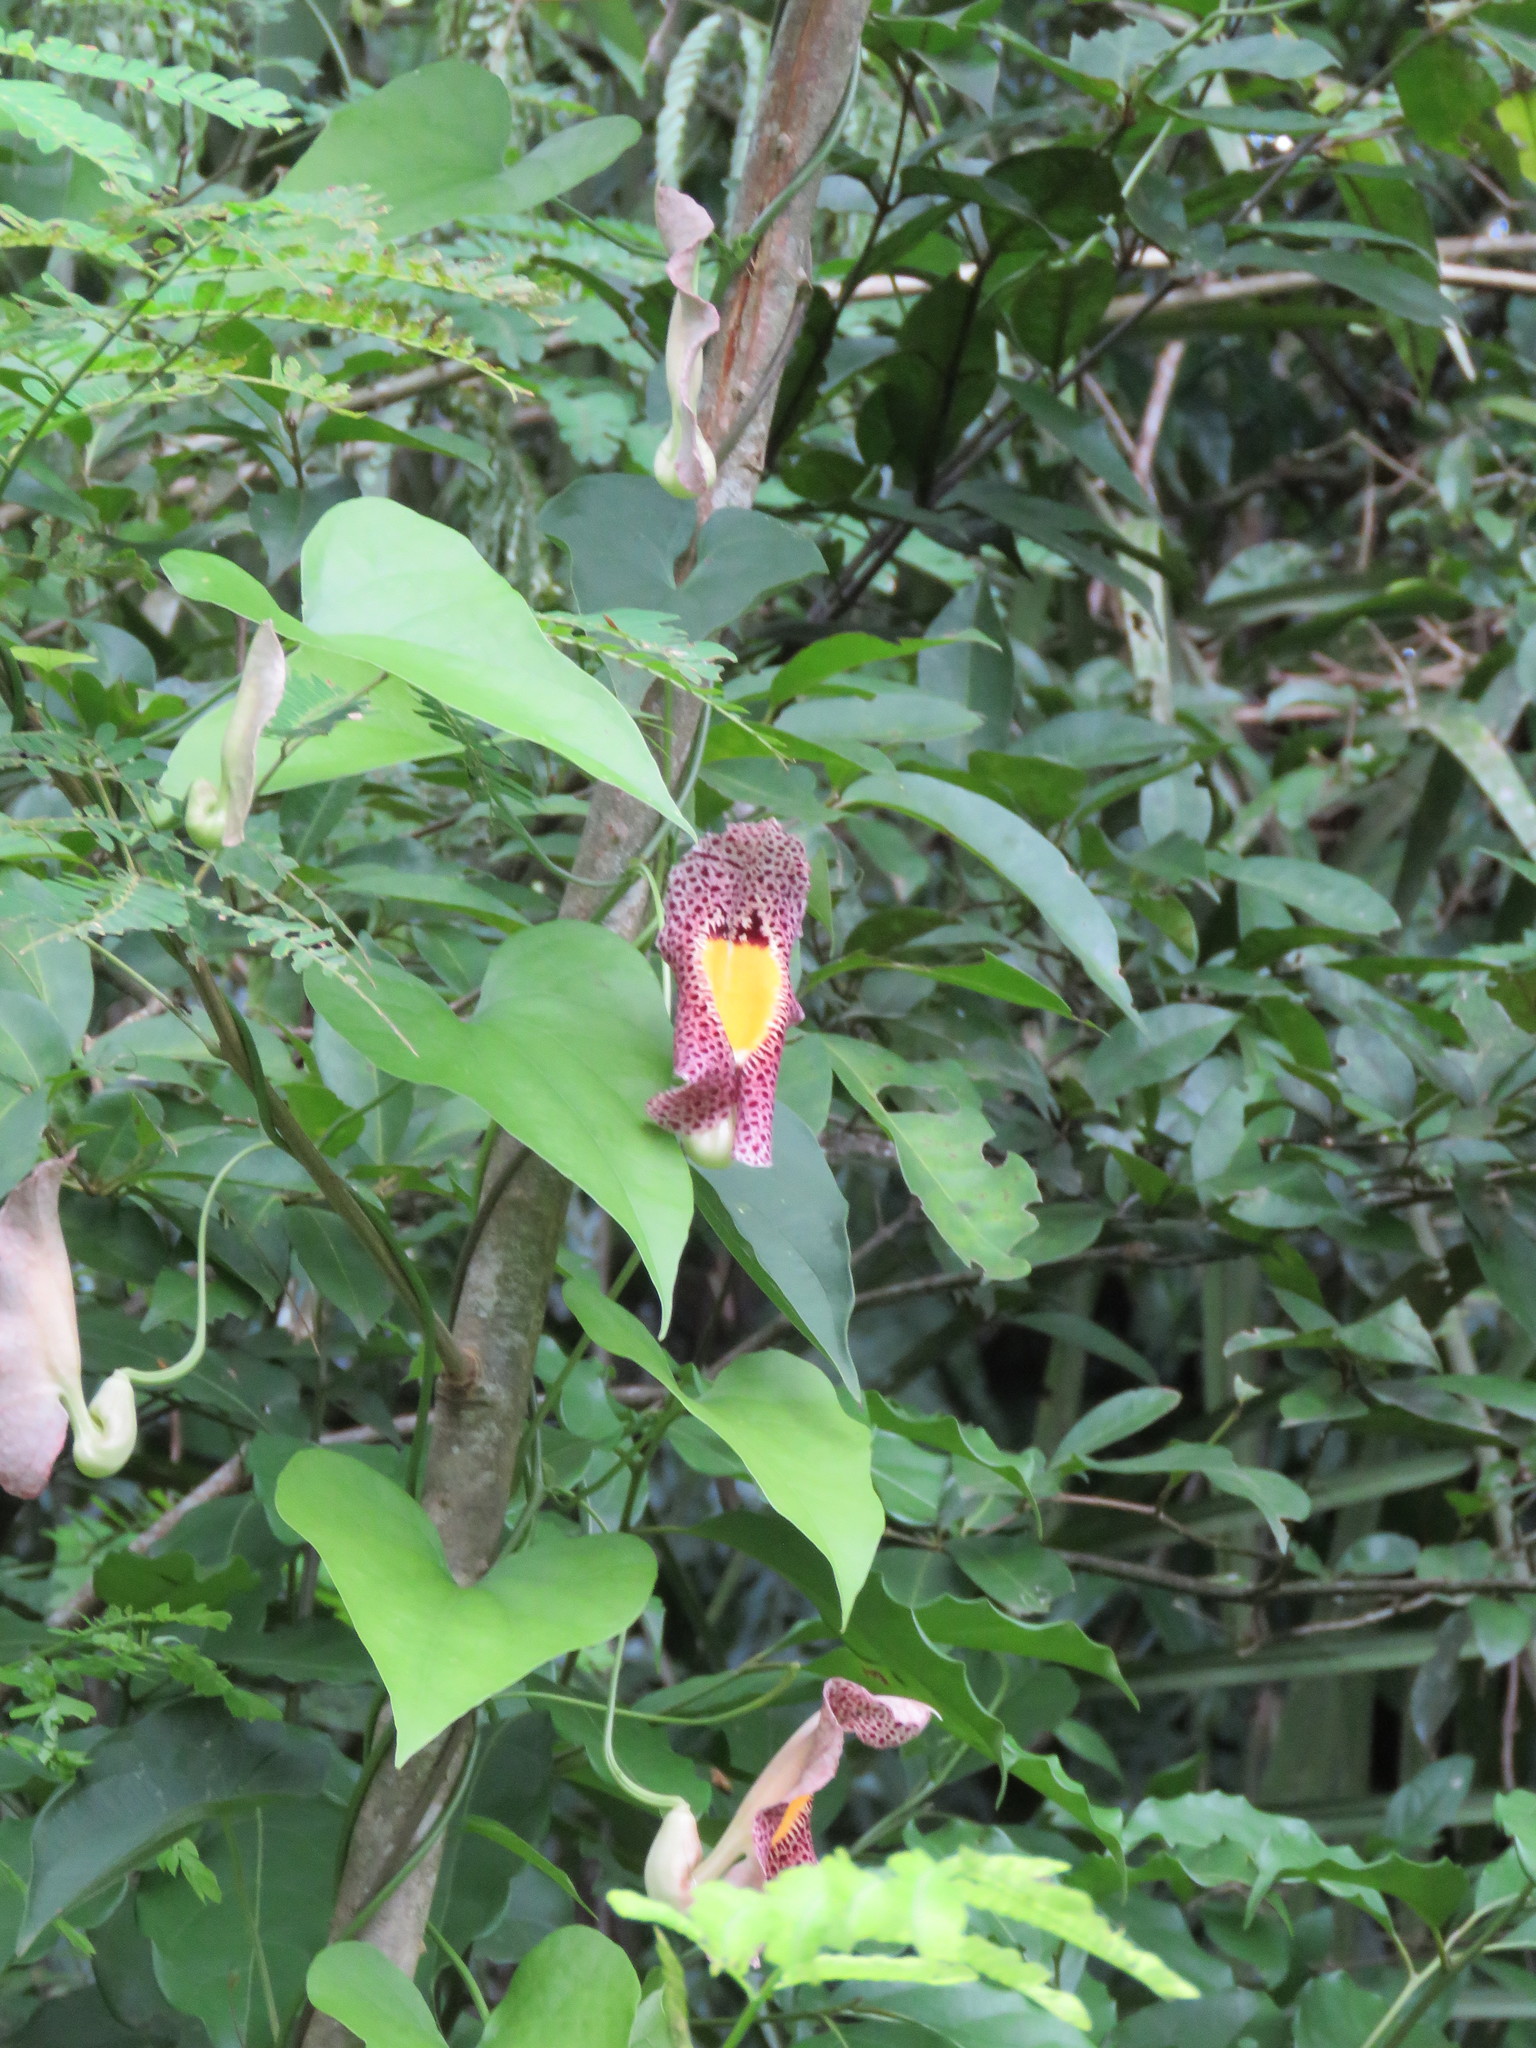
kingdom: Plantae
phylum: Tracheophyta
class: Magnoliopsida
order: Piperales
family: Aristolochiaceae
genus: Aristolochia
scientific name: Aristolochia odoratissima
